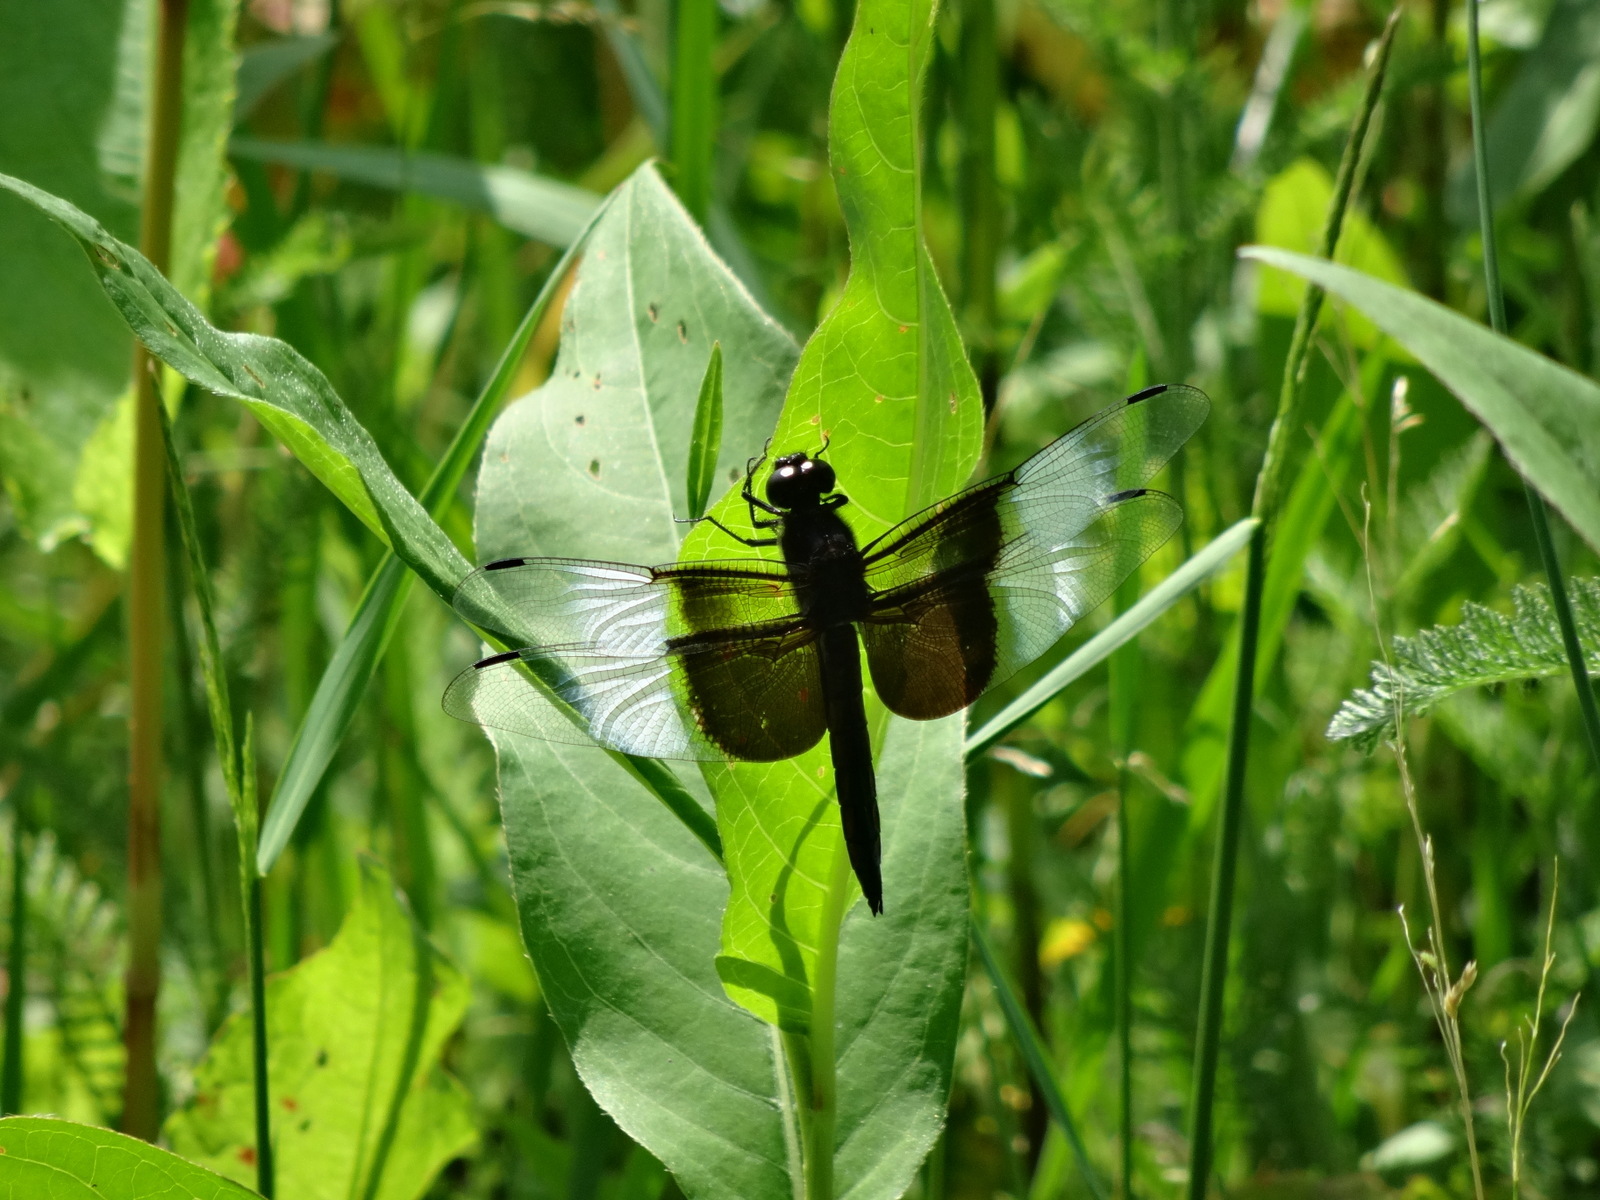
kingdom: Animalia
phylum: Arthropoda
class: Insecta
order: Odonata
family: Libellulidae
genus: Libellula
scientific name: Libellula luctuosa
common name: Widow skimmer
